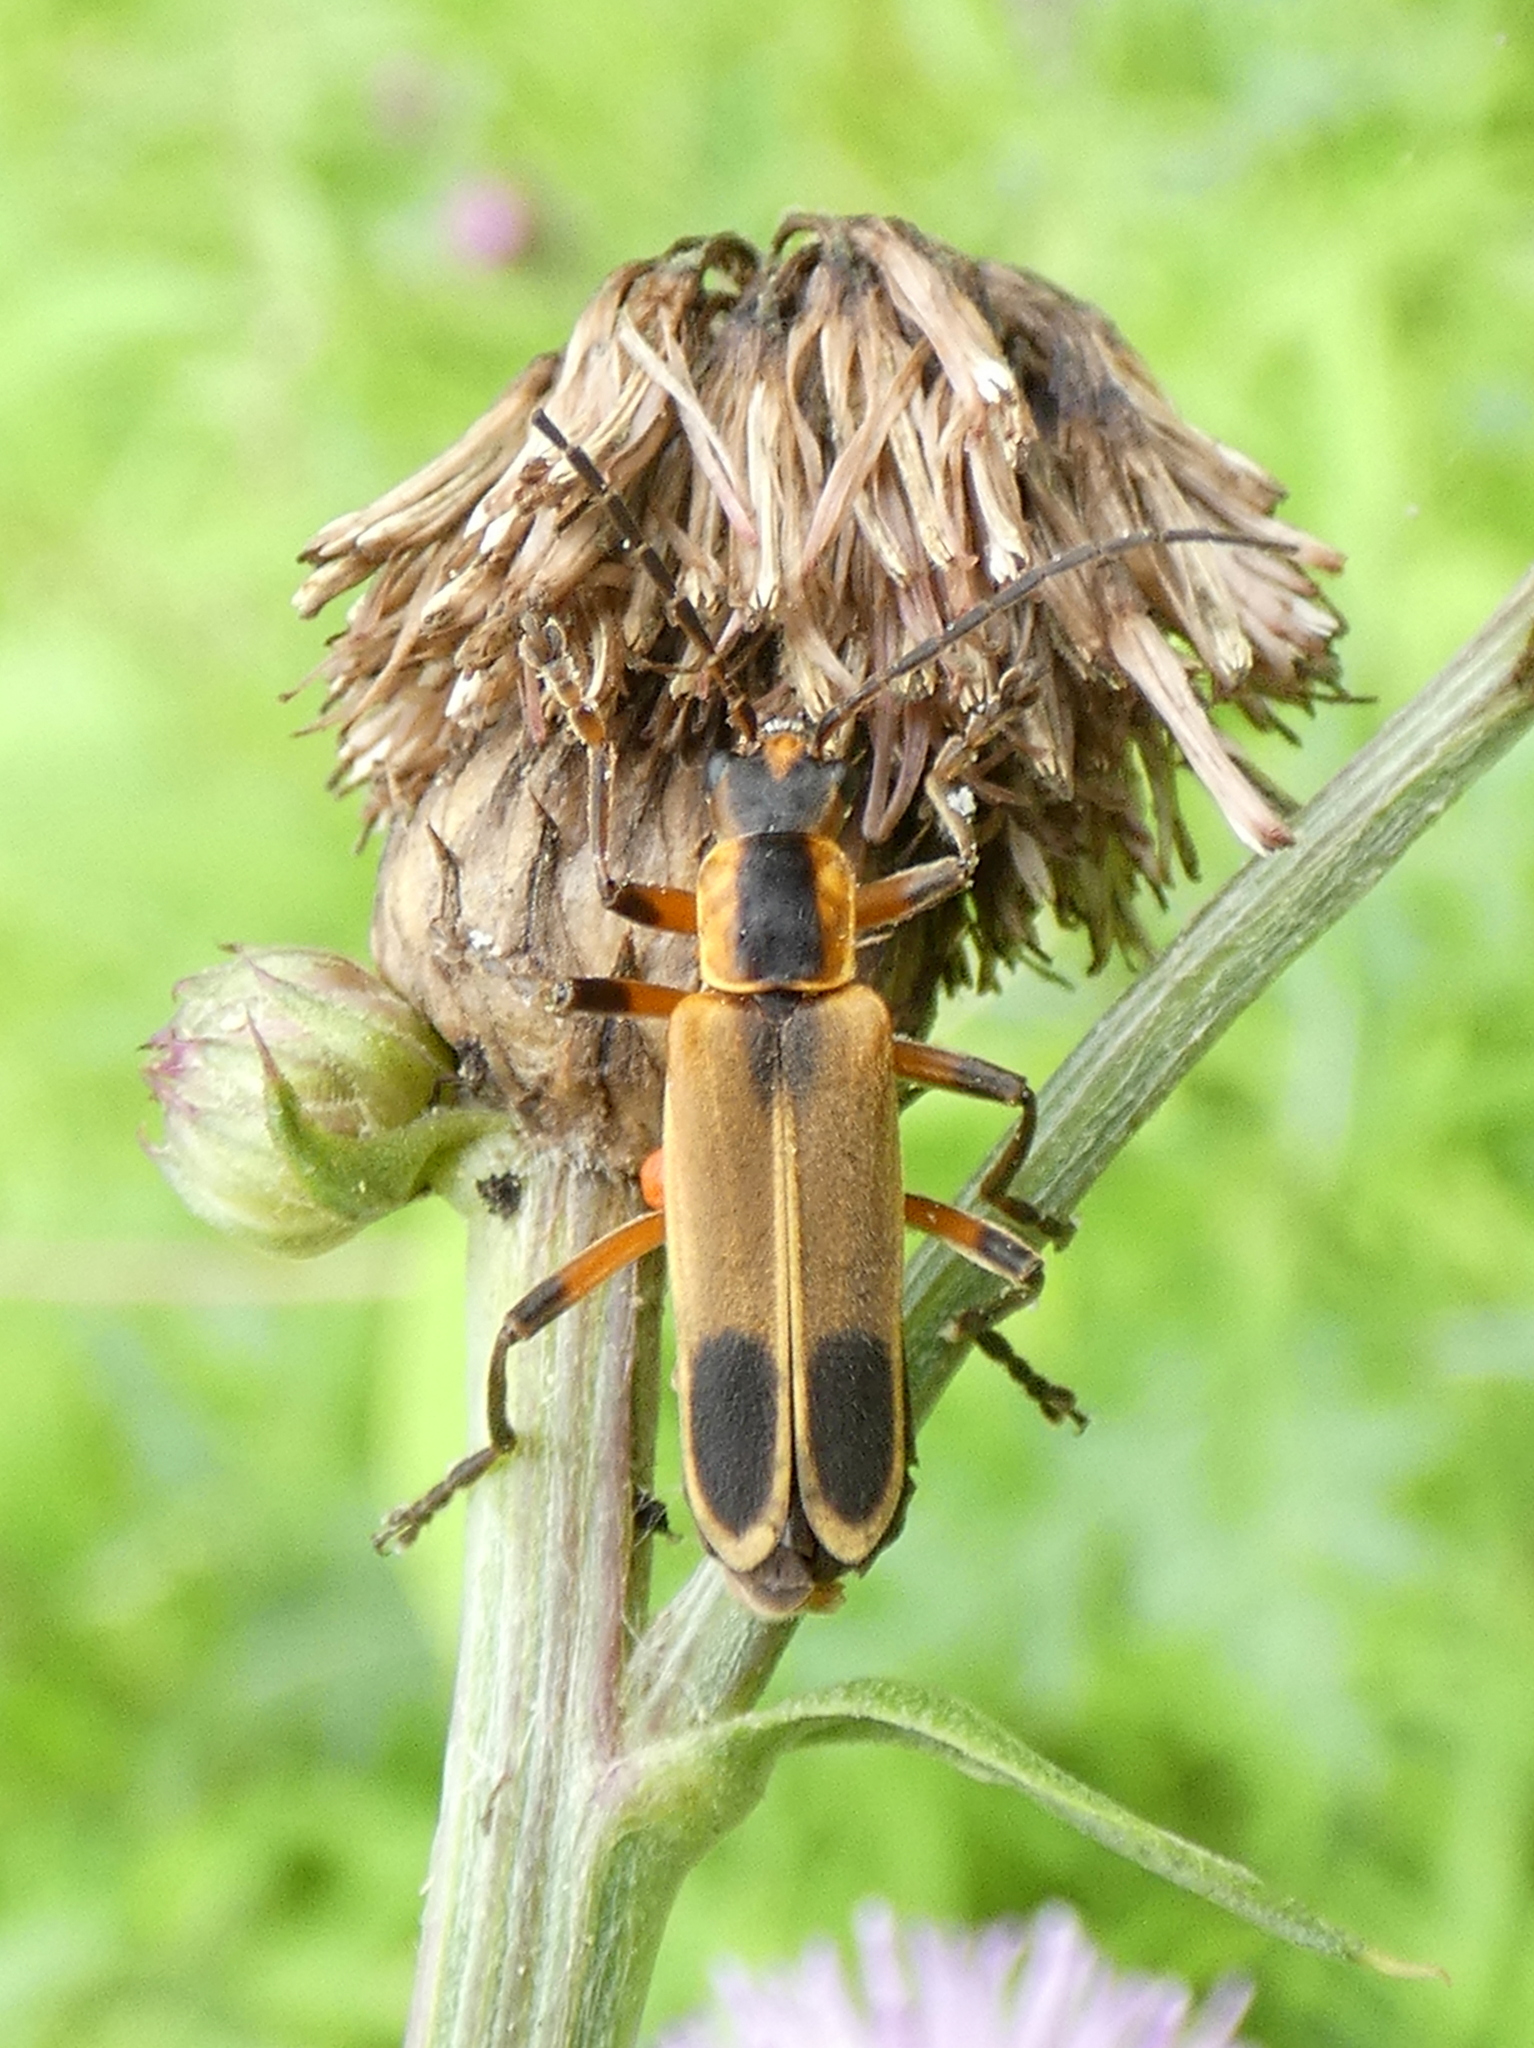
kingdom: Animalia
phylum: Arthropoda
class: Insecta
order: Coleoptera
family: Cantharidae
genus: Chauliognathus
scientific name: Chauliognathus marginatus
